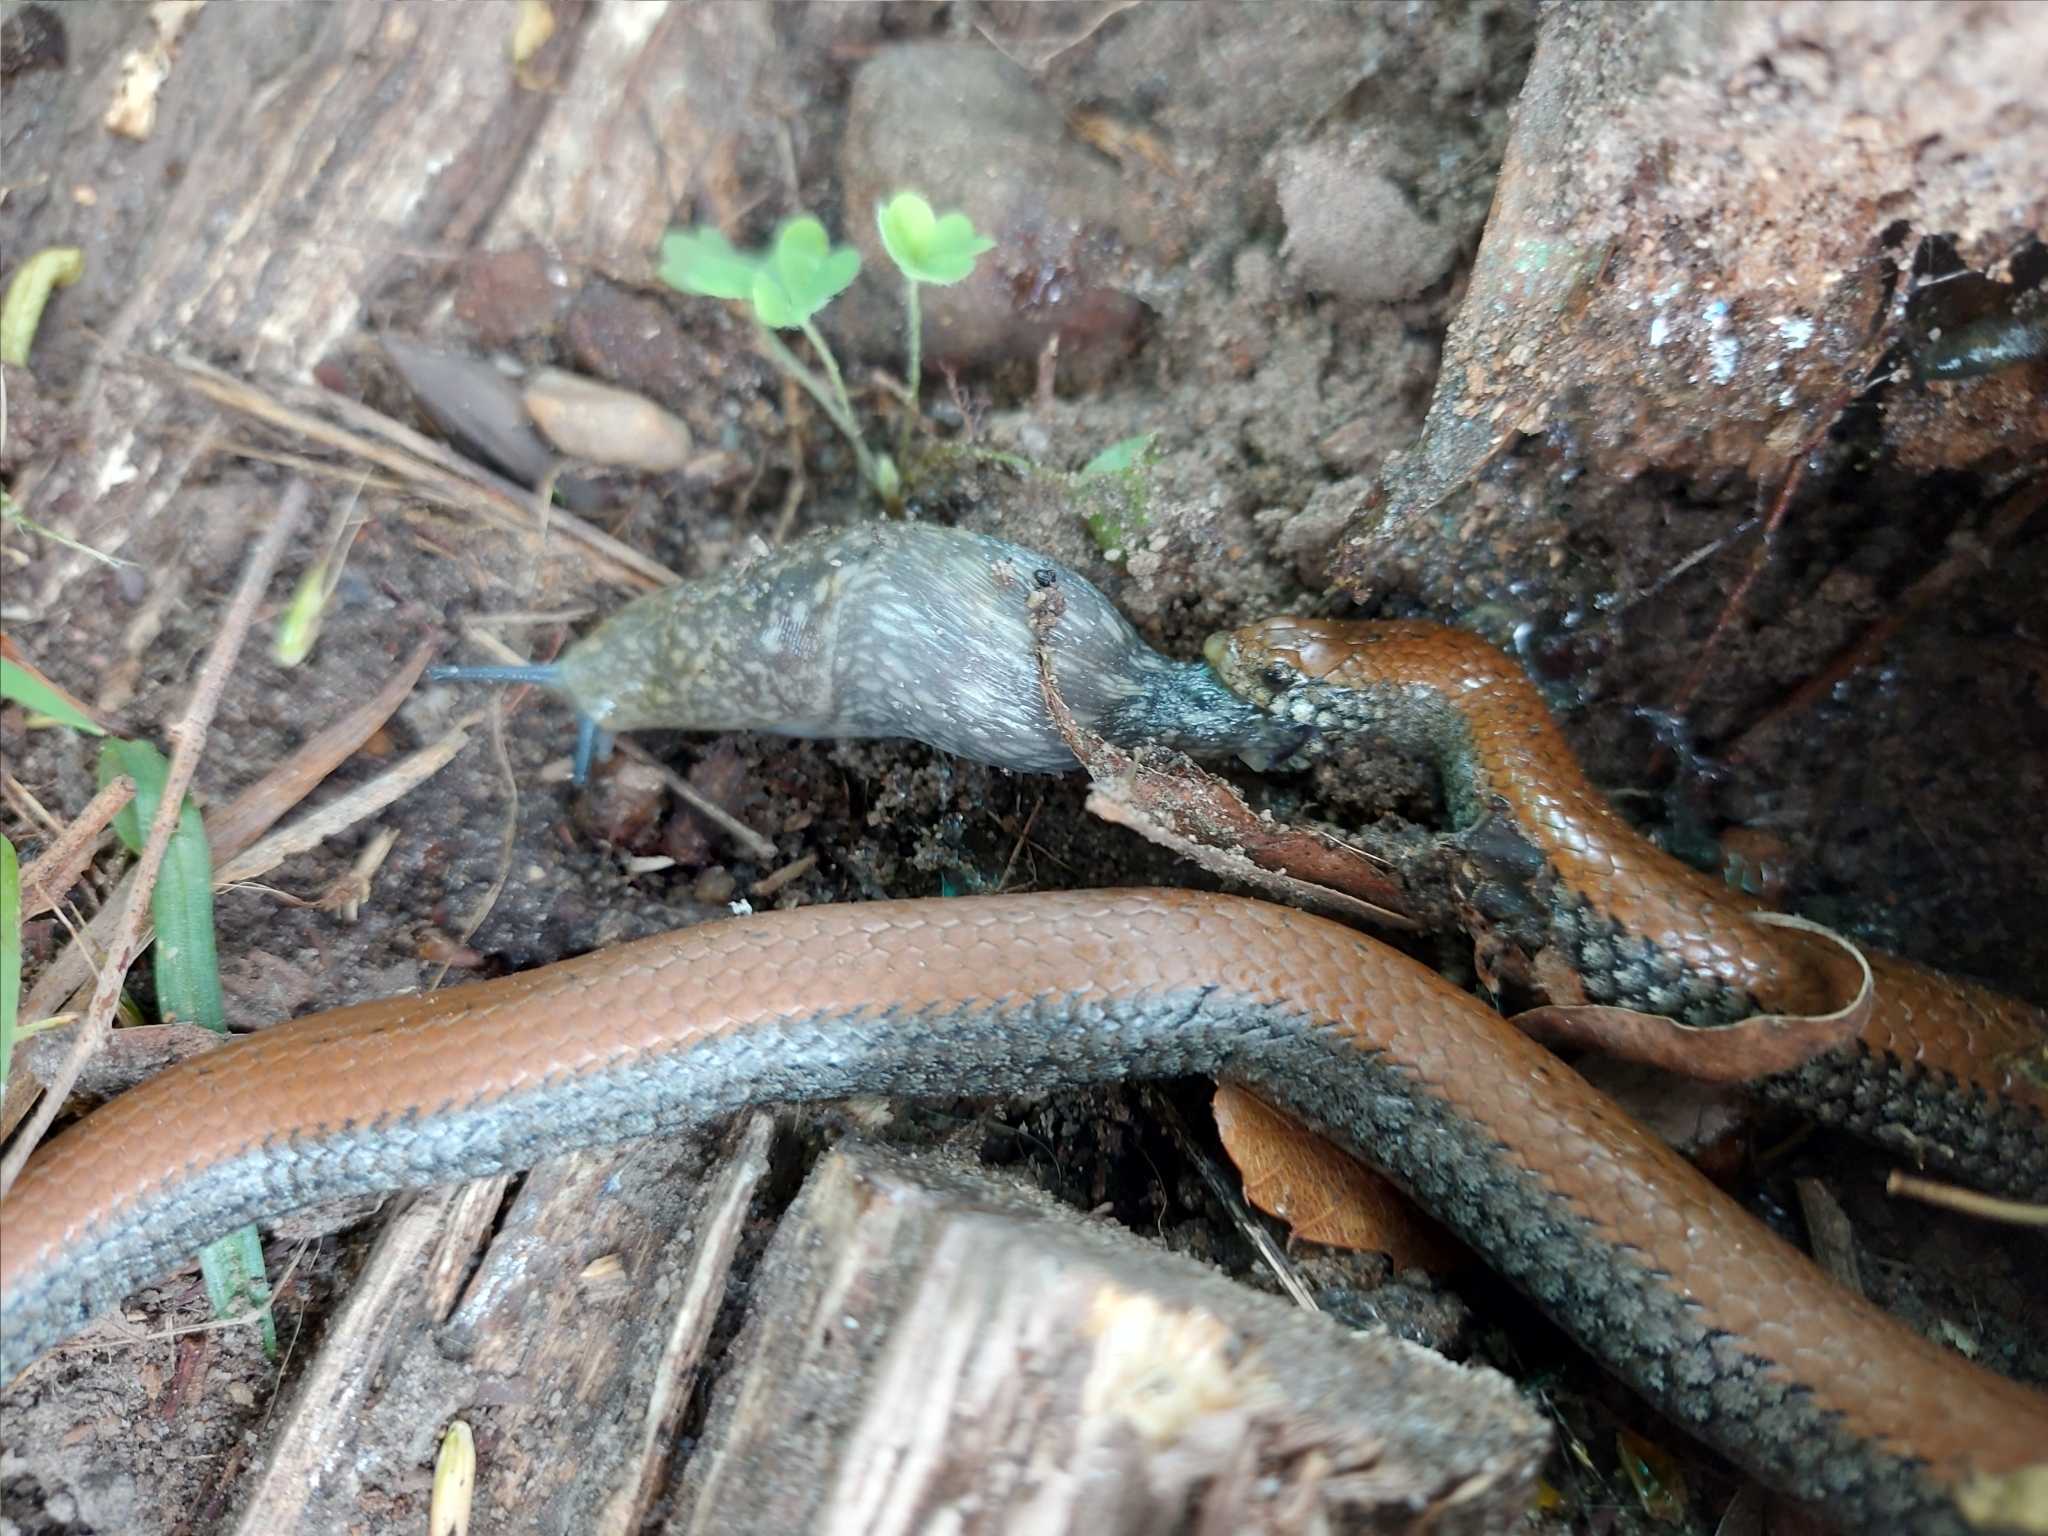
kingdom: Animalia
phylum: Chordata
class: Squamata
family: Pseudoxyrhophiidae
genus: Duberria
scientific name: Duberria lutrix
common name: Common slug eater
